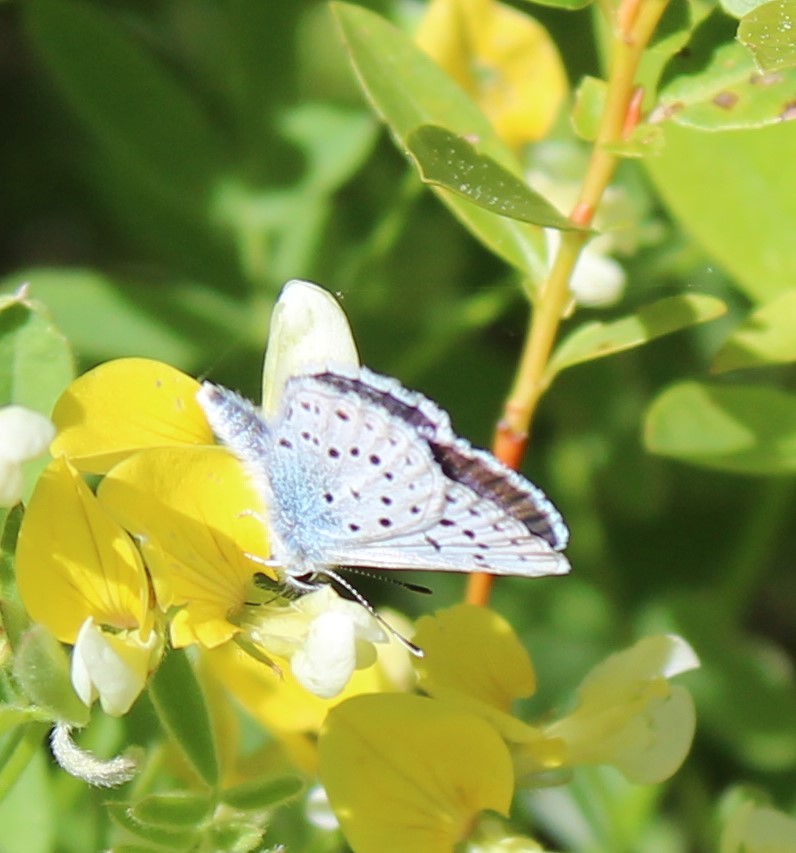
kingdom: Animalia
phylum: Arthropoda
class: Insecta
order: Lepidoptera
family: Lycaenidae
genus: Icaricia
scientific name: Icaricia saepiolus
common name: Greenish blue
